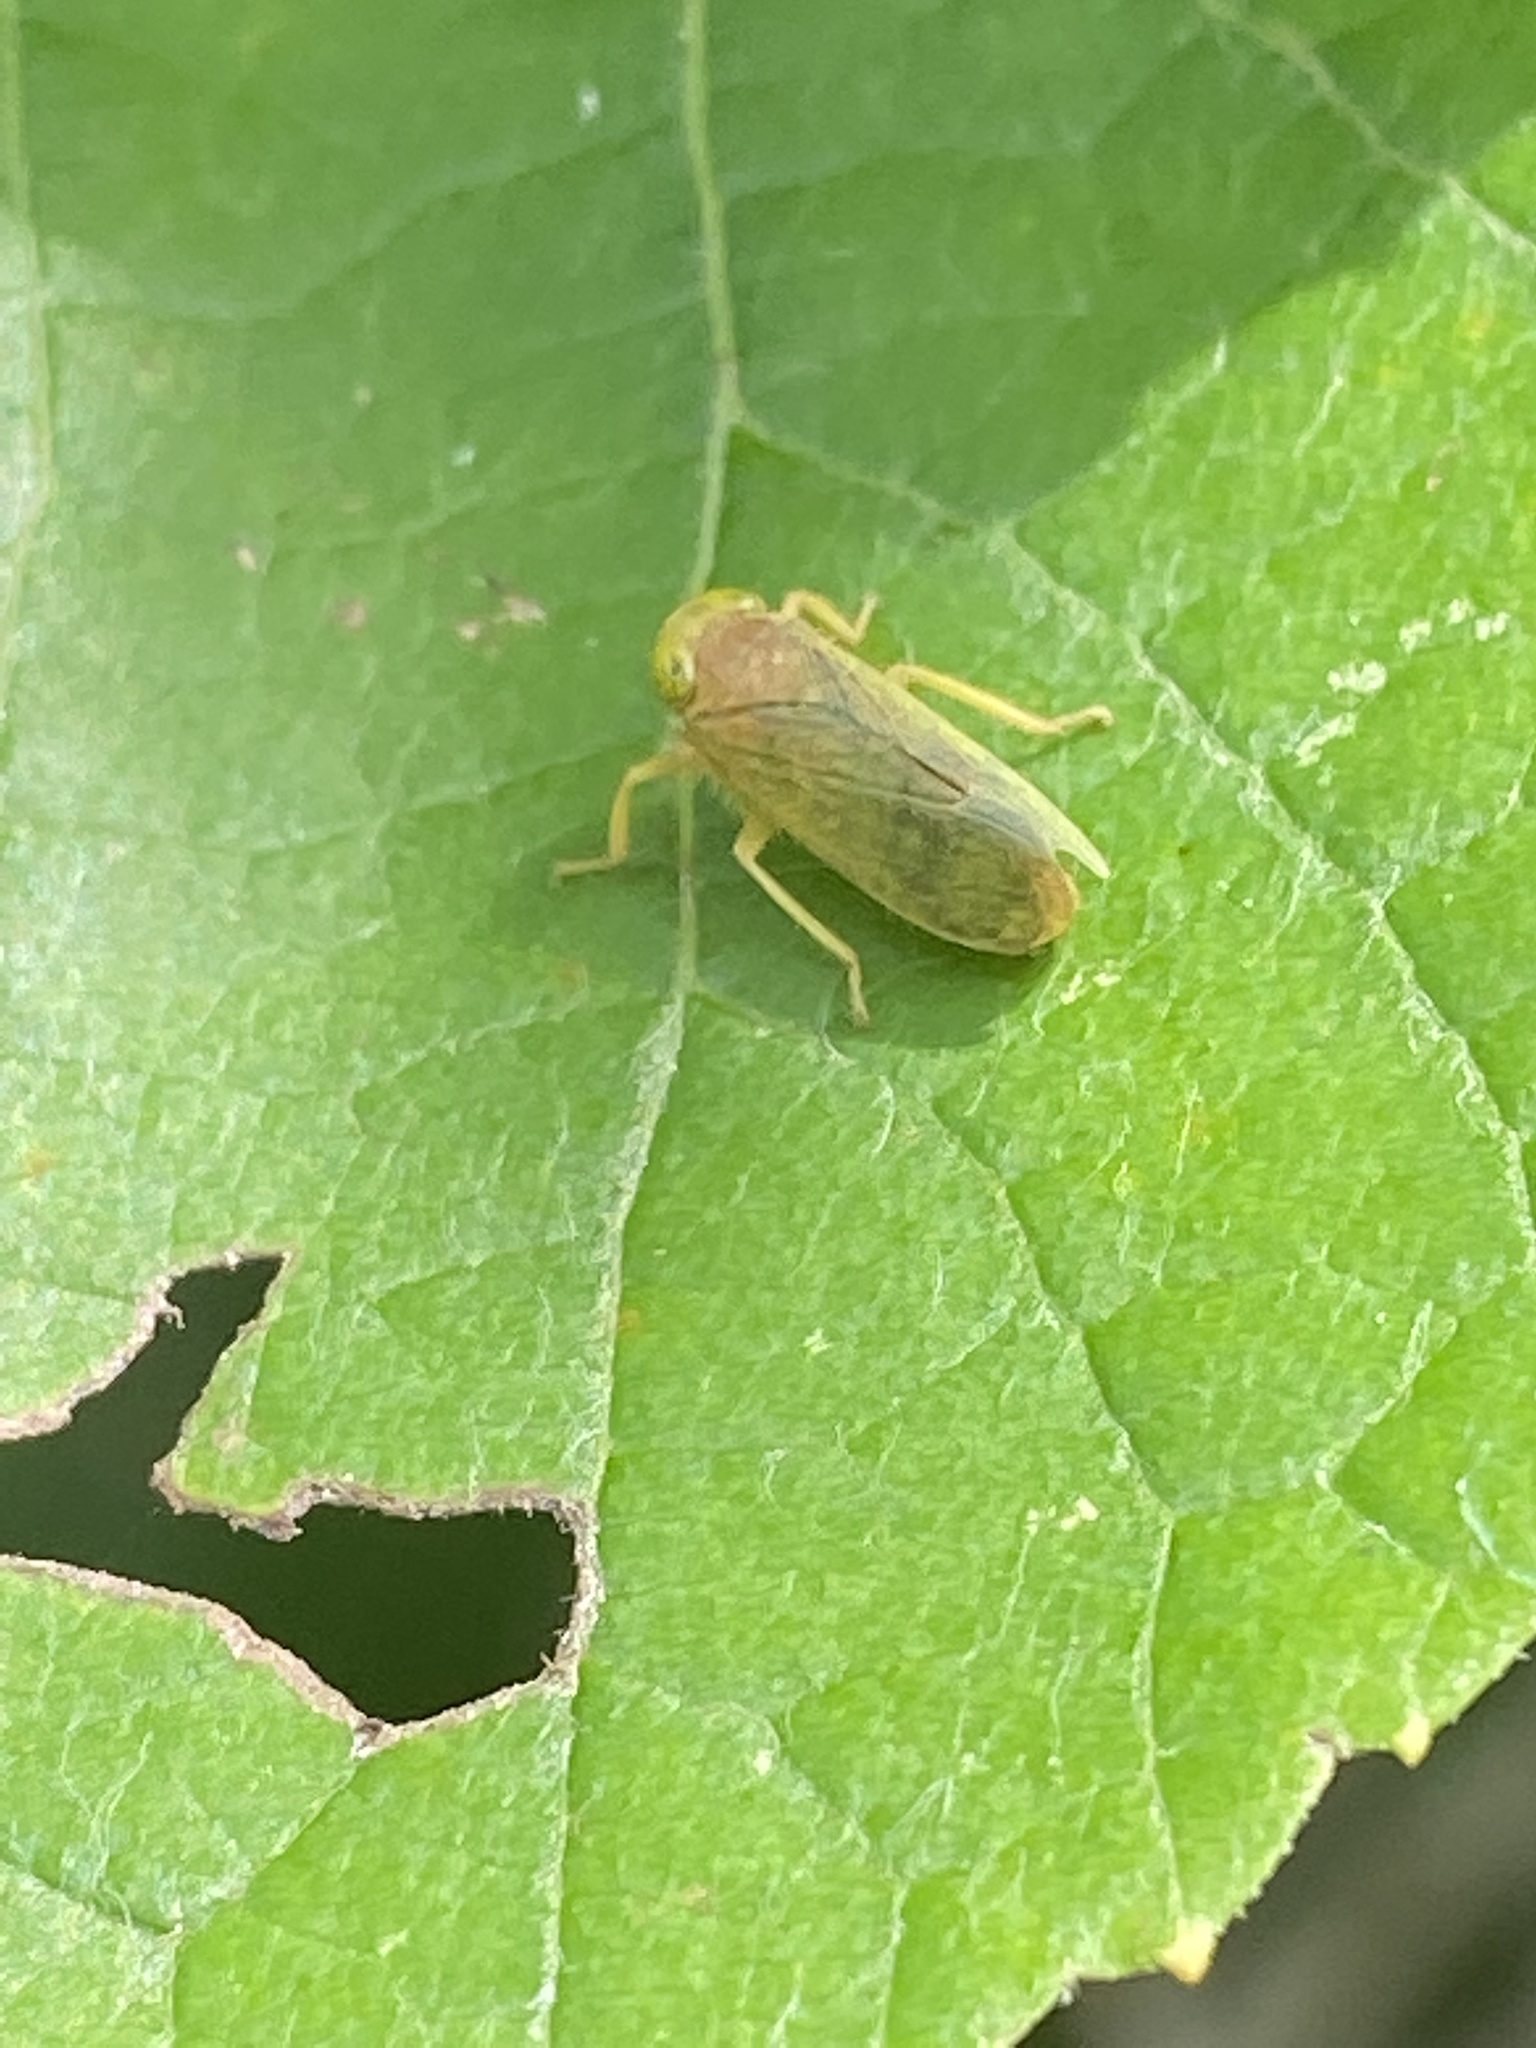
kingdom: Animalia
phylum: Arthropoda
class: Insecta
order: Hemiptera
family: Cicadellidae
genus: Jikradia
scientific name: Jikradia olitoria
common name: Coppery leafhopper
